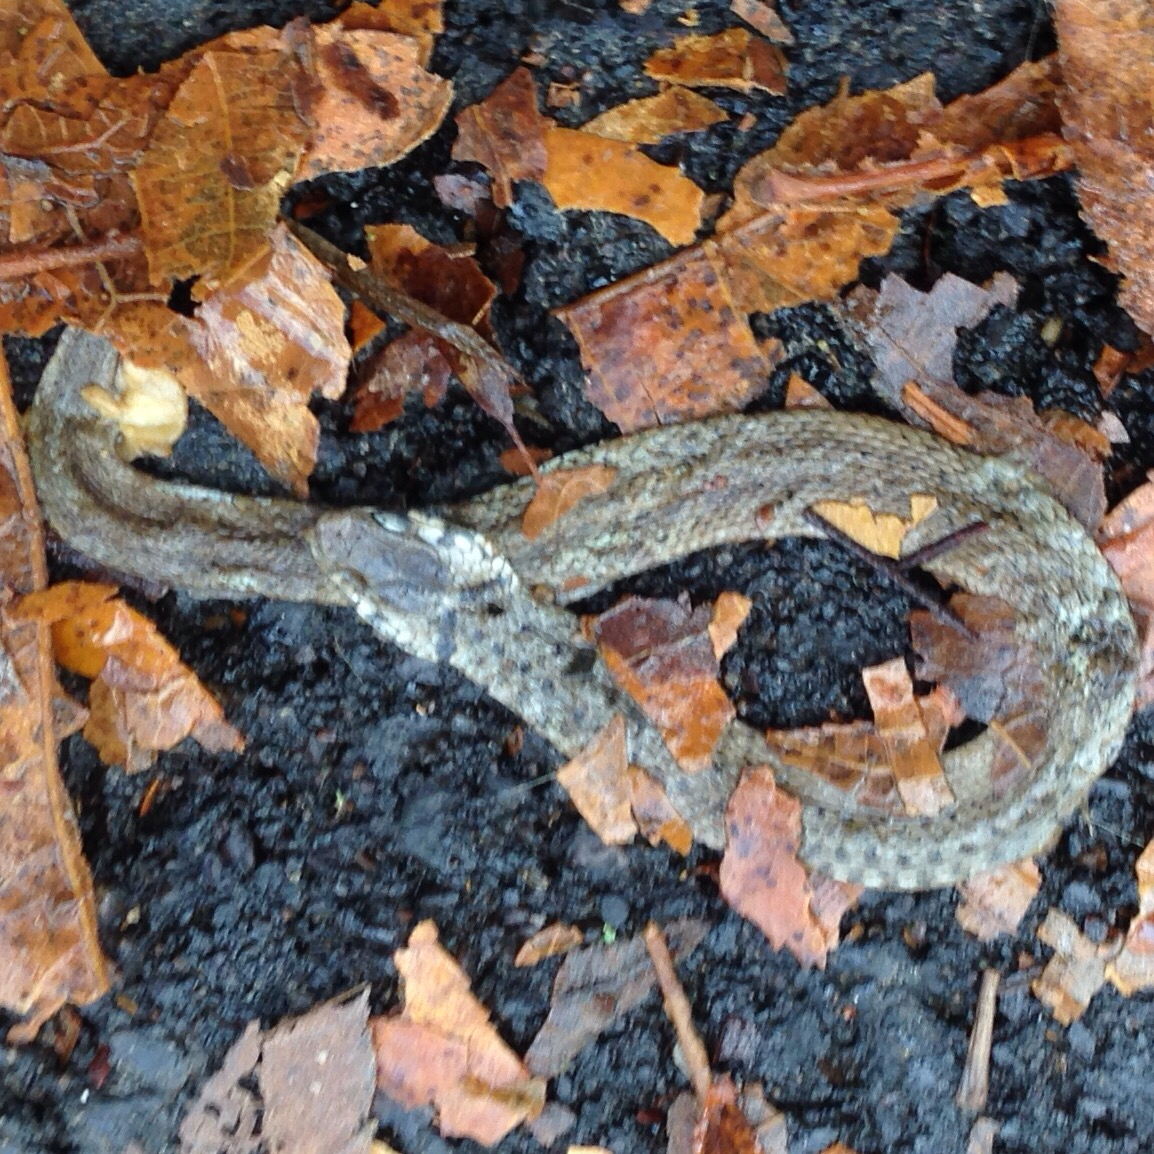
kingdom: Animalia
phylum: Chordata
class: Squamata
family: Colubridae
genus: Storeria
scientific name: Storeria dekayi
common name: (dekay’s) brown snake
